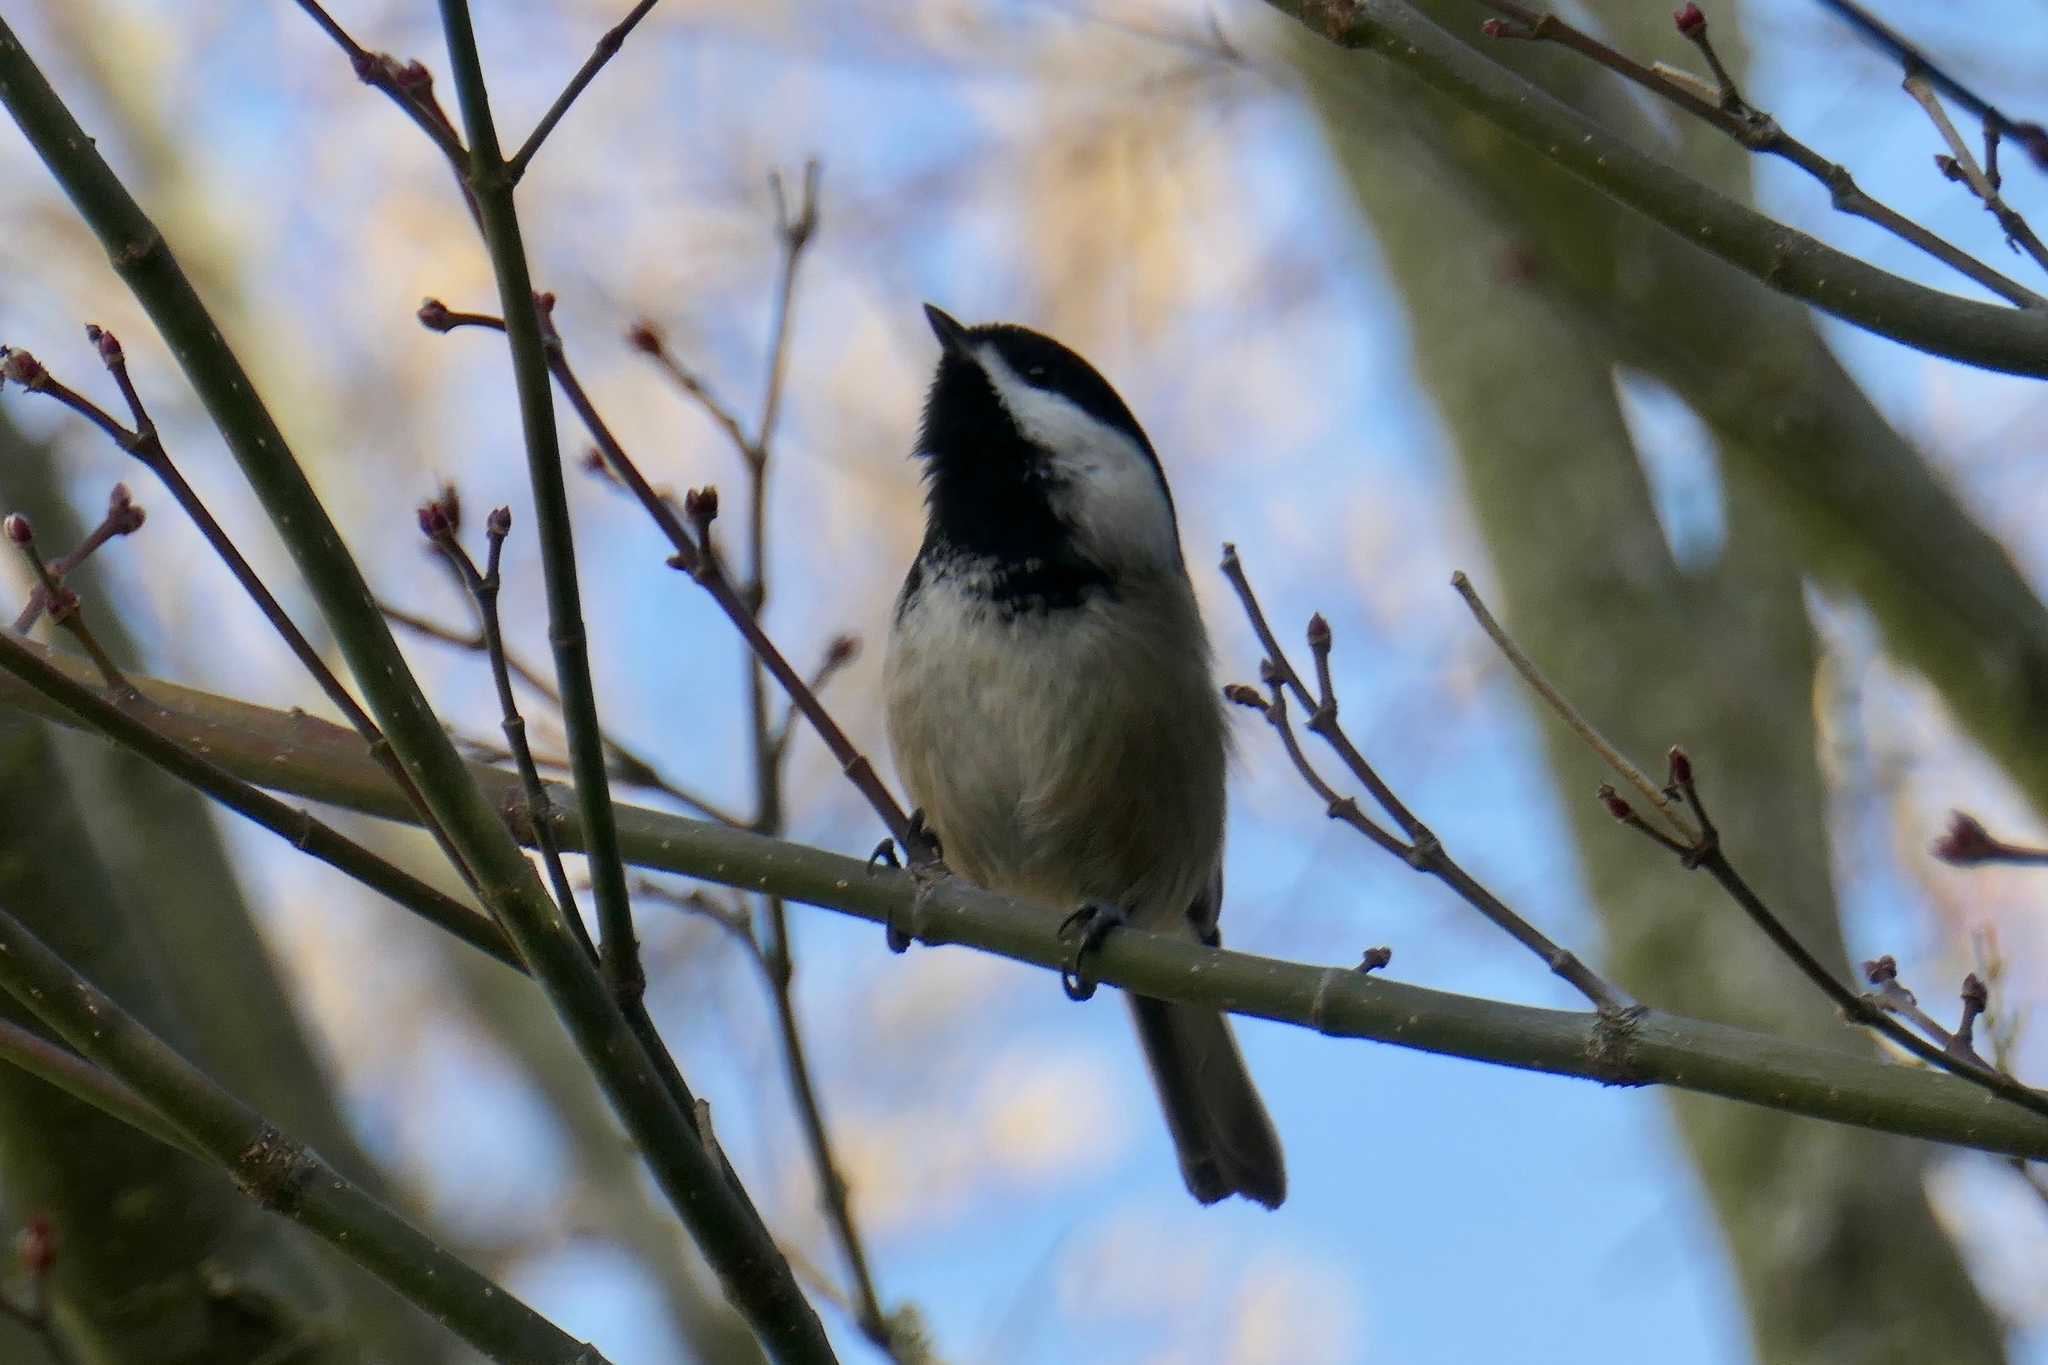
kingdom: Animalia
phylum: Chordata
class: Aves
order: Passeriformes
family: Paridae
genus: Poecile
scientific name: Poecile atricapillus
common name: Black-capped chickadee
